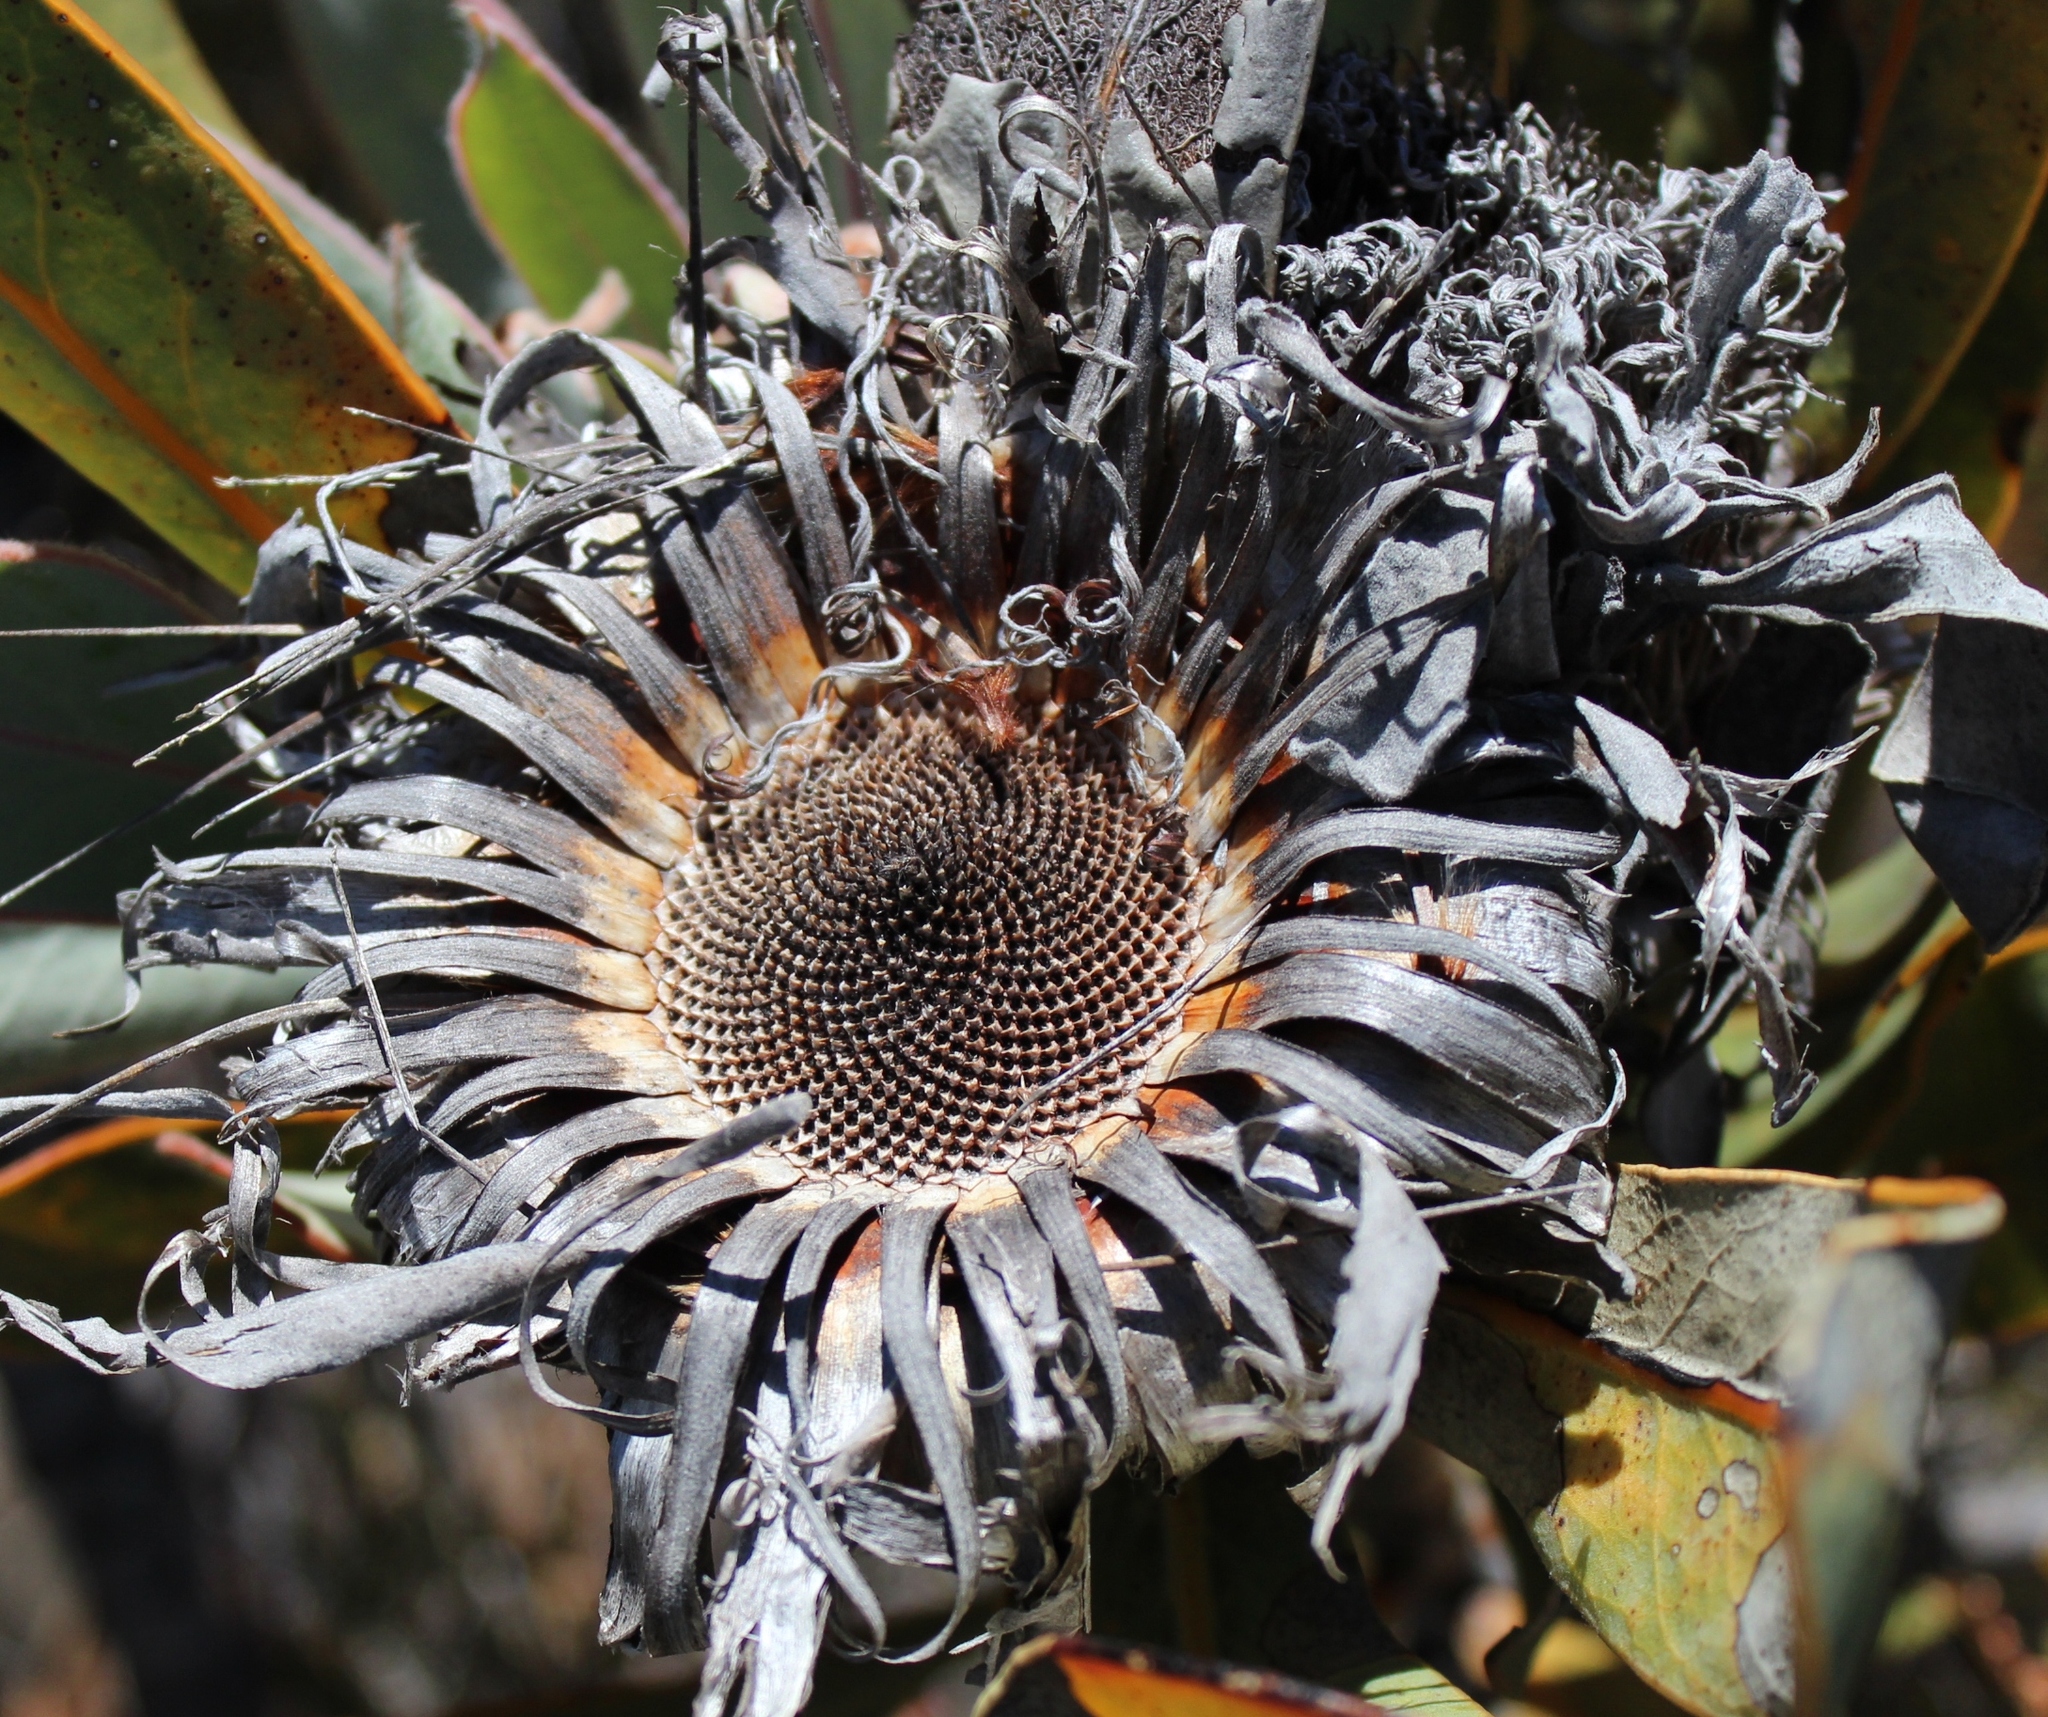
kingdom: Plantae
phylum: Tracheophyta
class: Magnoliopsida
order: Proteales
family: Proteaceae
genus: Protea
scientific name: Protea lorifolia
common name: Strap-leaved protea
